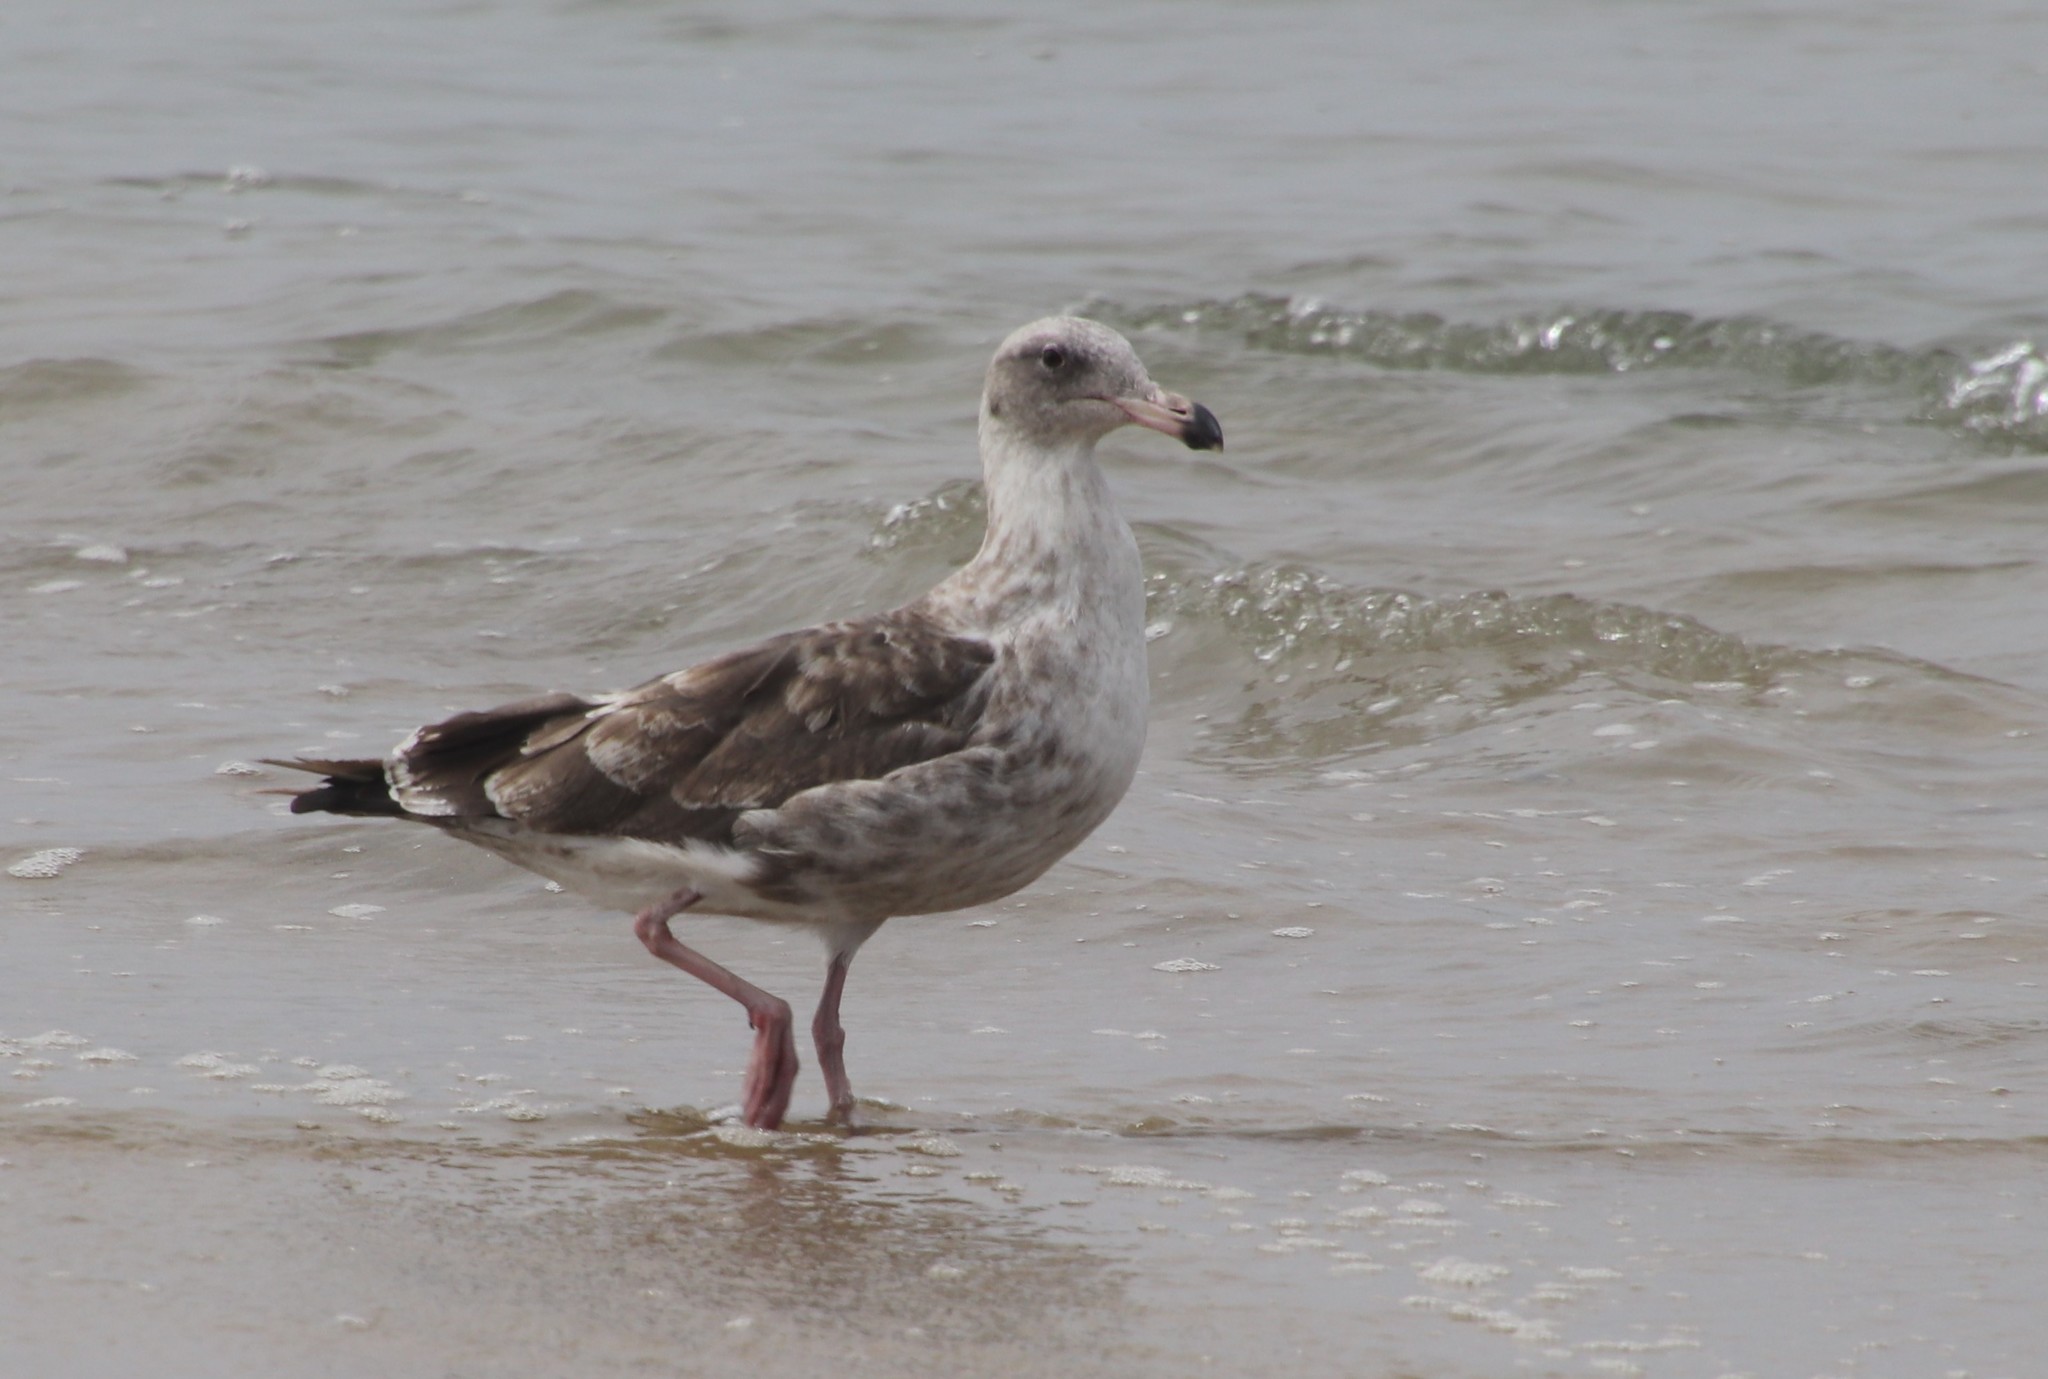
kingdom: Animalia
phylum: Chordata
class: Aves
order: Charadriiformes
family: Laridae
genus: Larus
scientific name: Larus occidentalis
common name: Western gull
